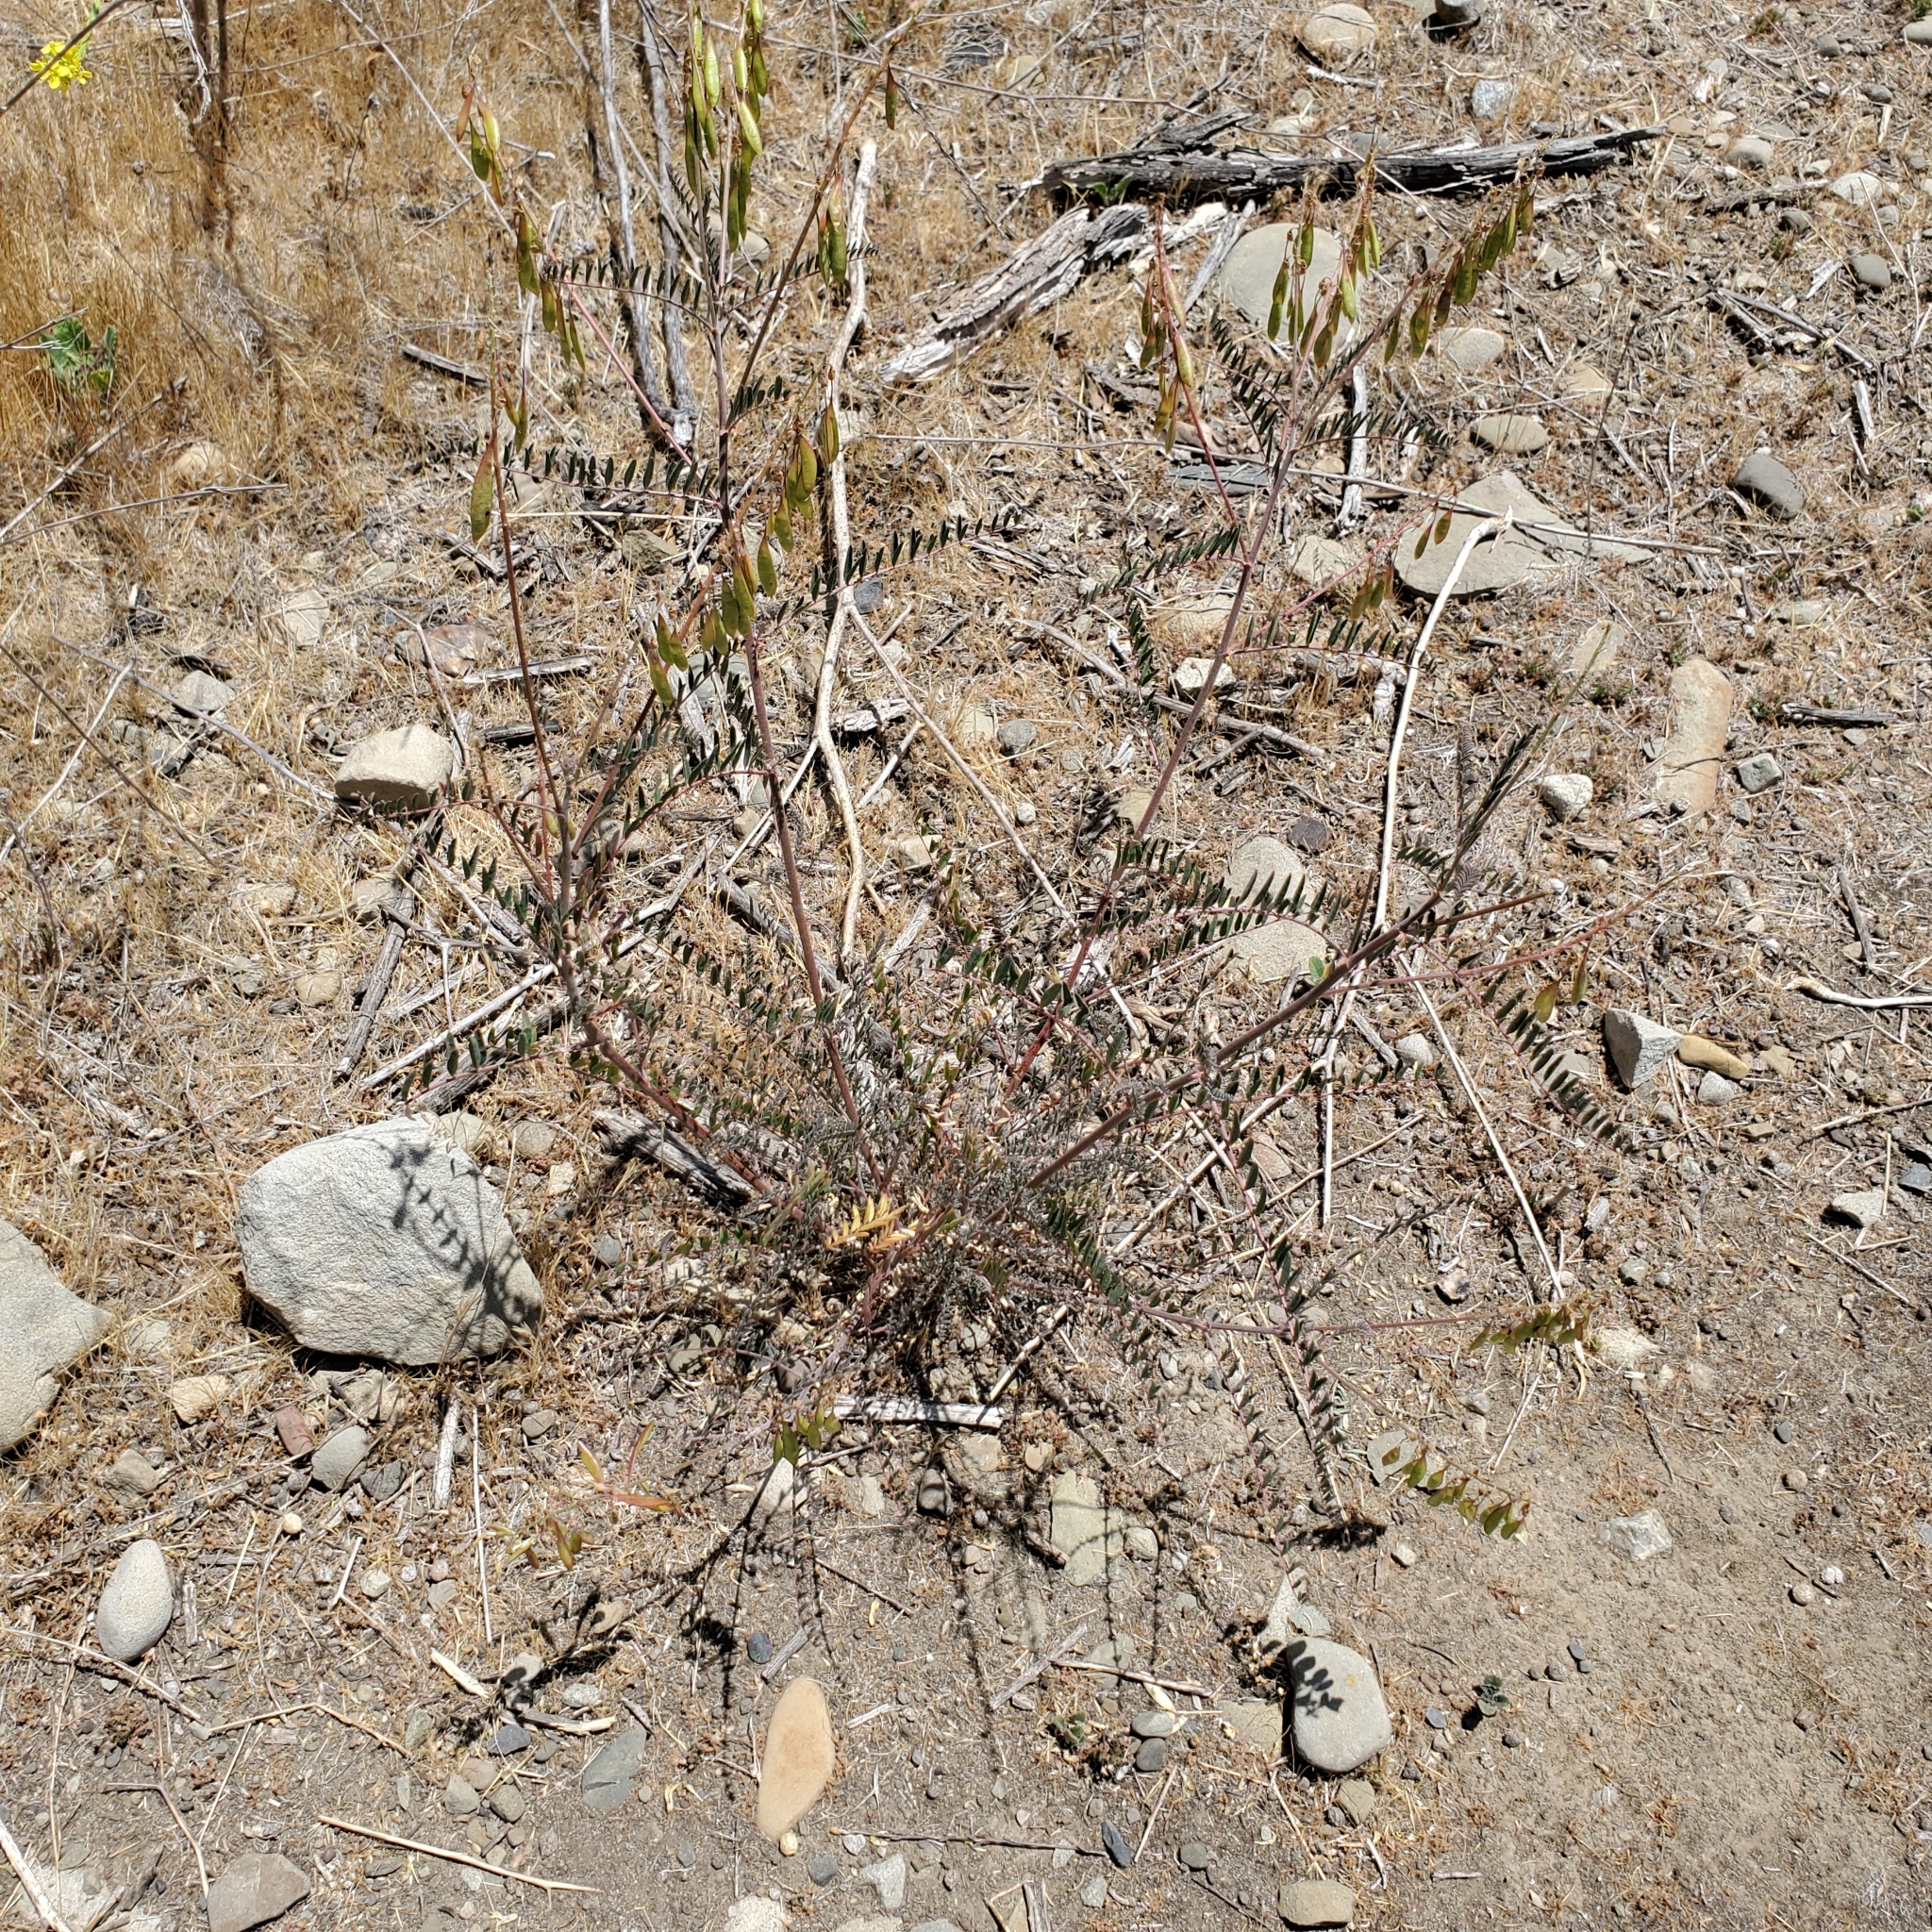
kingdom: Plantae
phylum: Tracheophyta
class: Magnoliopsida
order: Fabales
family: Fabaceae
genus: Astragalus
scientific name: Astragalus trichopodus
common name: Santa barbara milk-vetch
